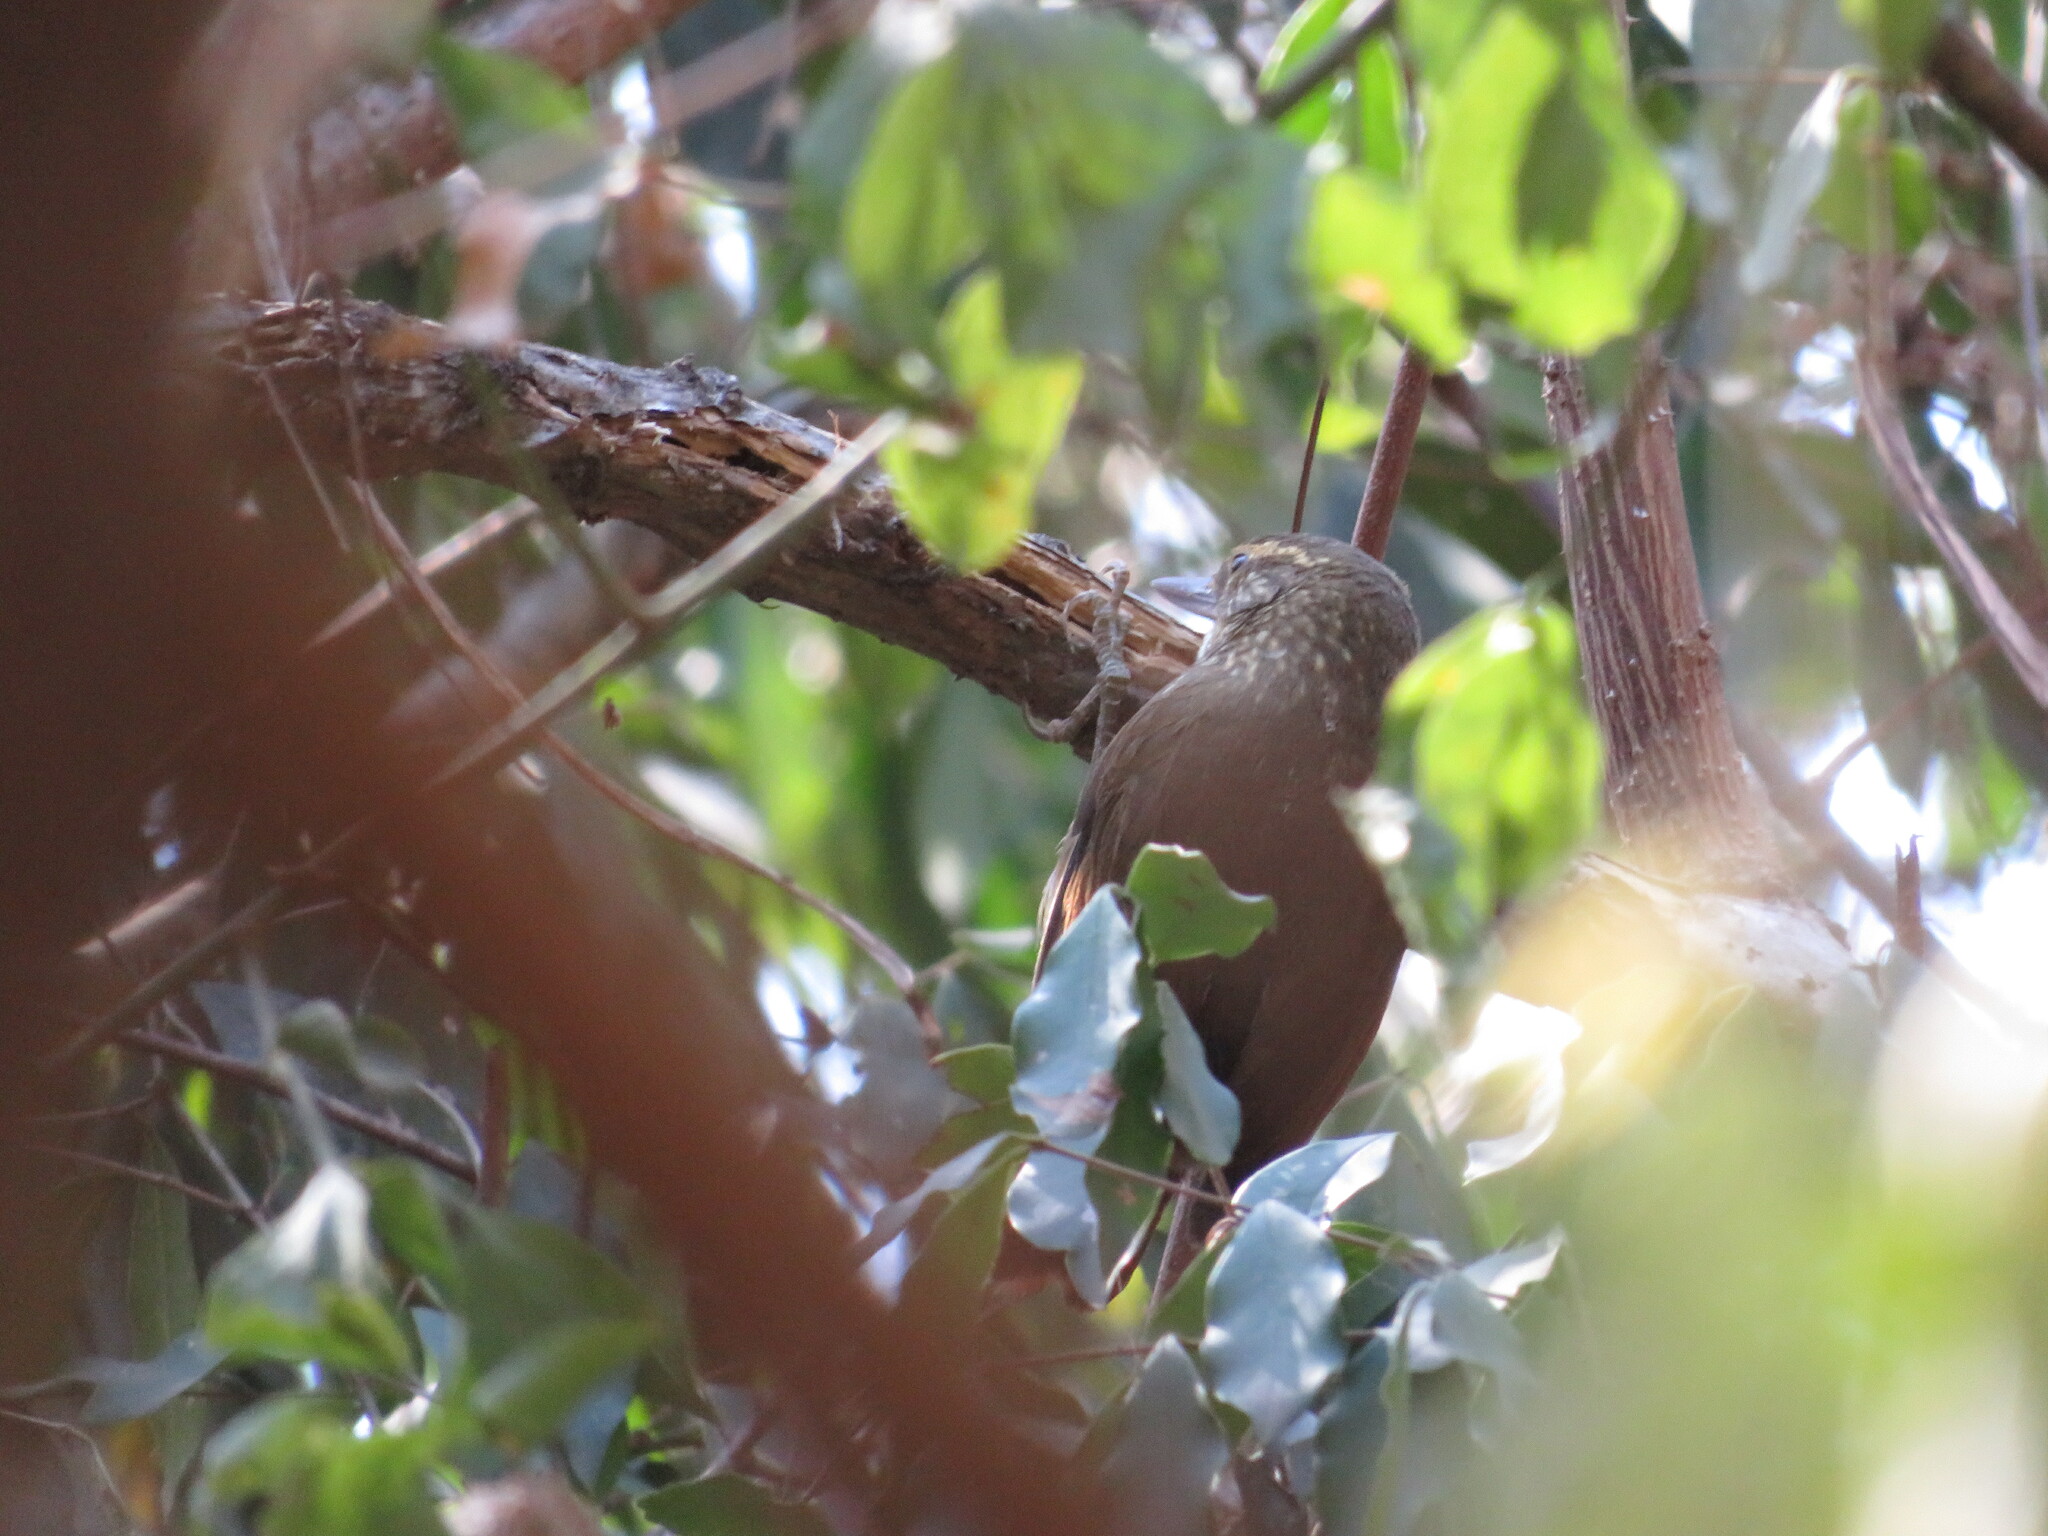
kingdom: Animalia
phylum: Chordata
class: Aves
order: Passeriformes
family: Furnariidae
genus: Syndactyla
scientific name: Syndactyla rufosuperciliata
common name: Buff-browed foliage-gleaner
